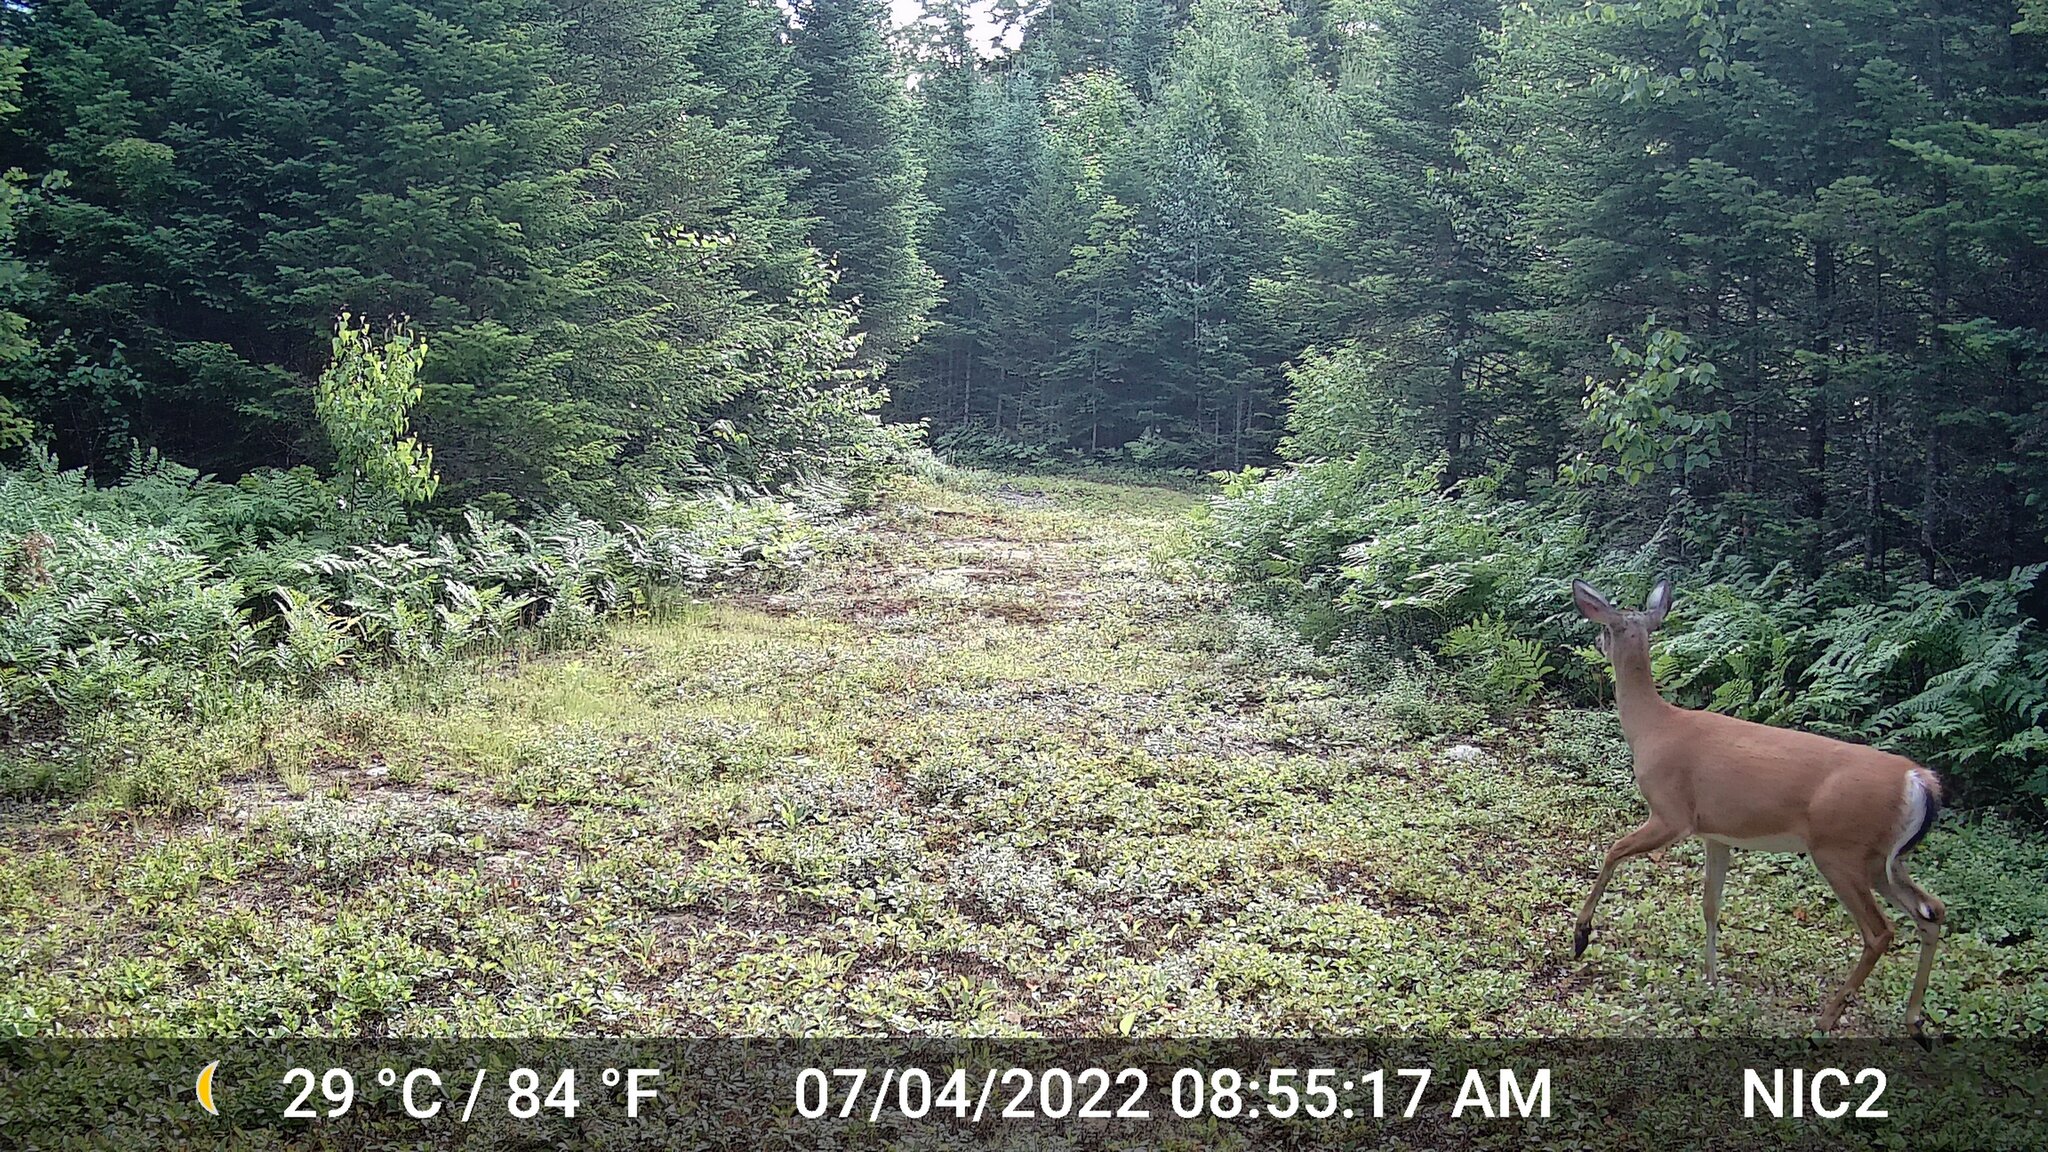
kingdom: Animalia
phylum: Chordata
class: Mammalia
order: Artiodactyla
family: Cervidae
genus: Odocoileus
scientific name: Odocoileus virginianus
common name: White-tailed deer
